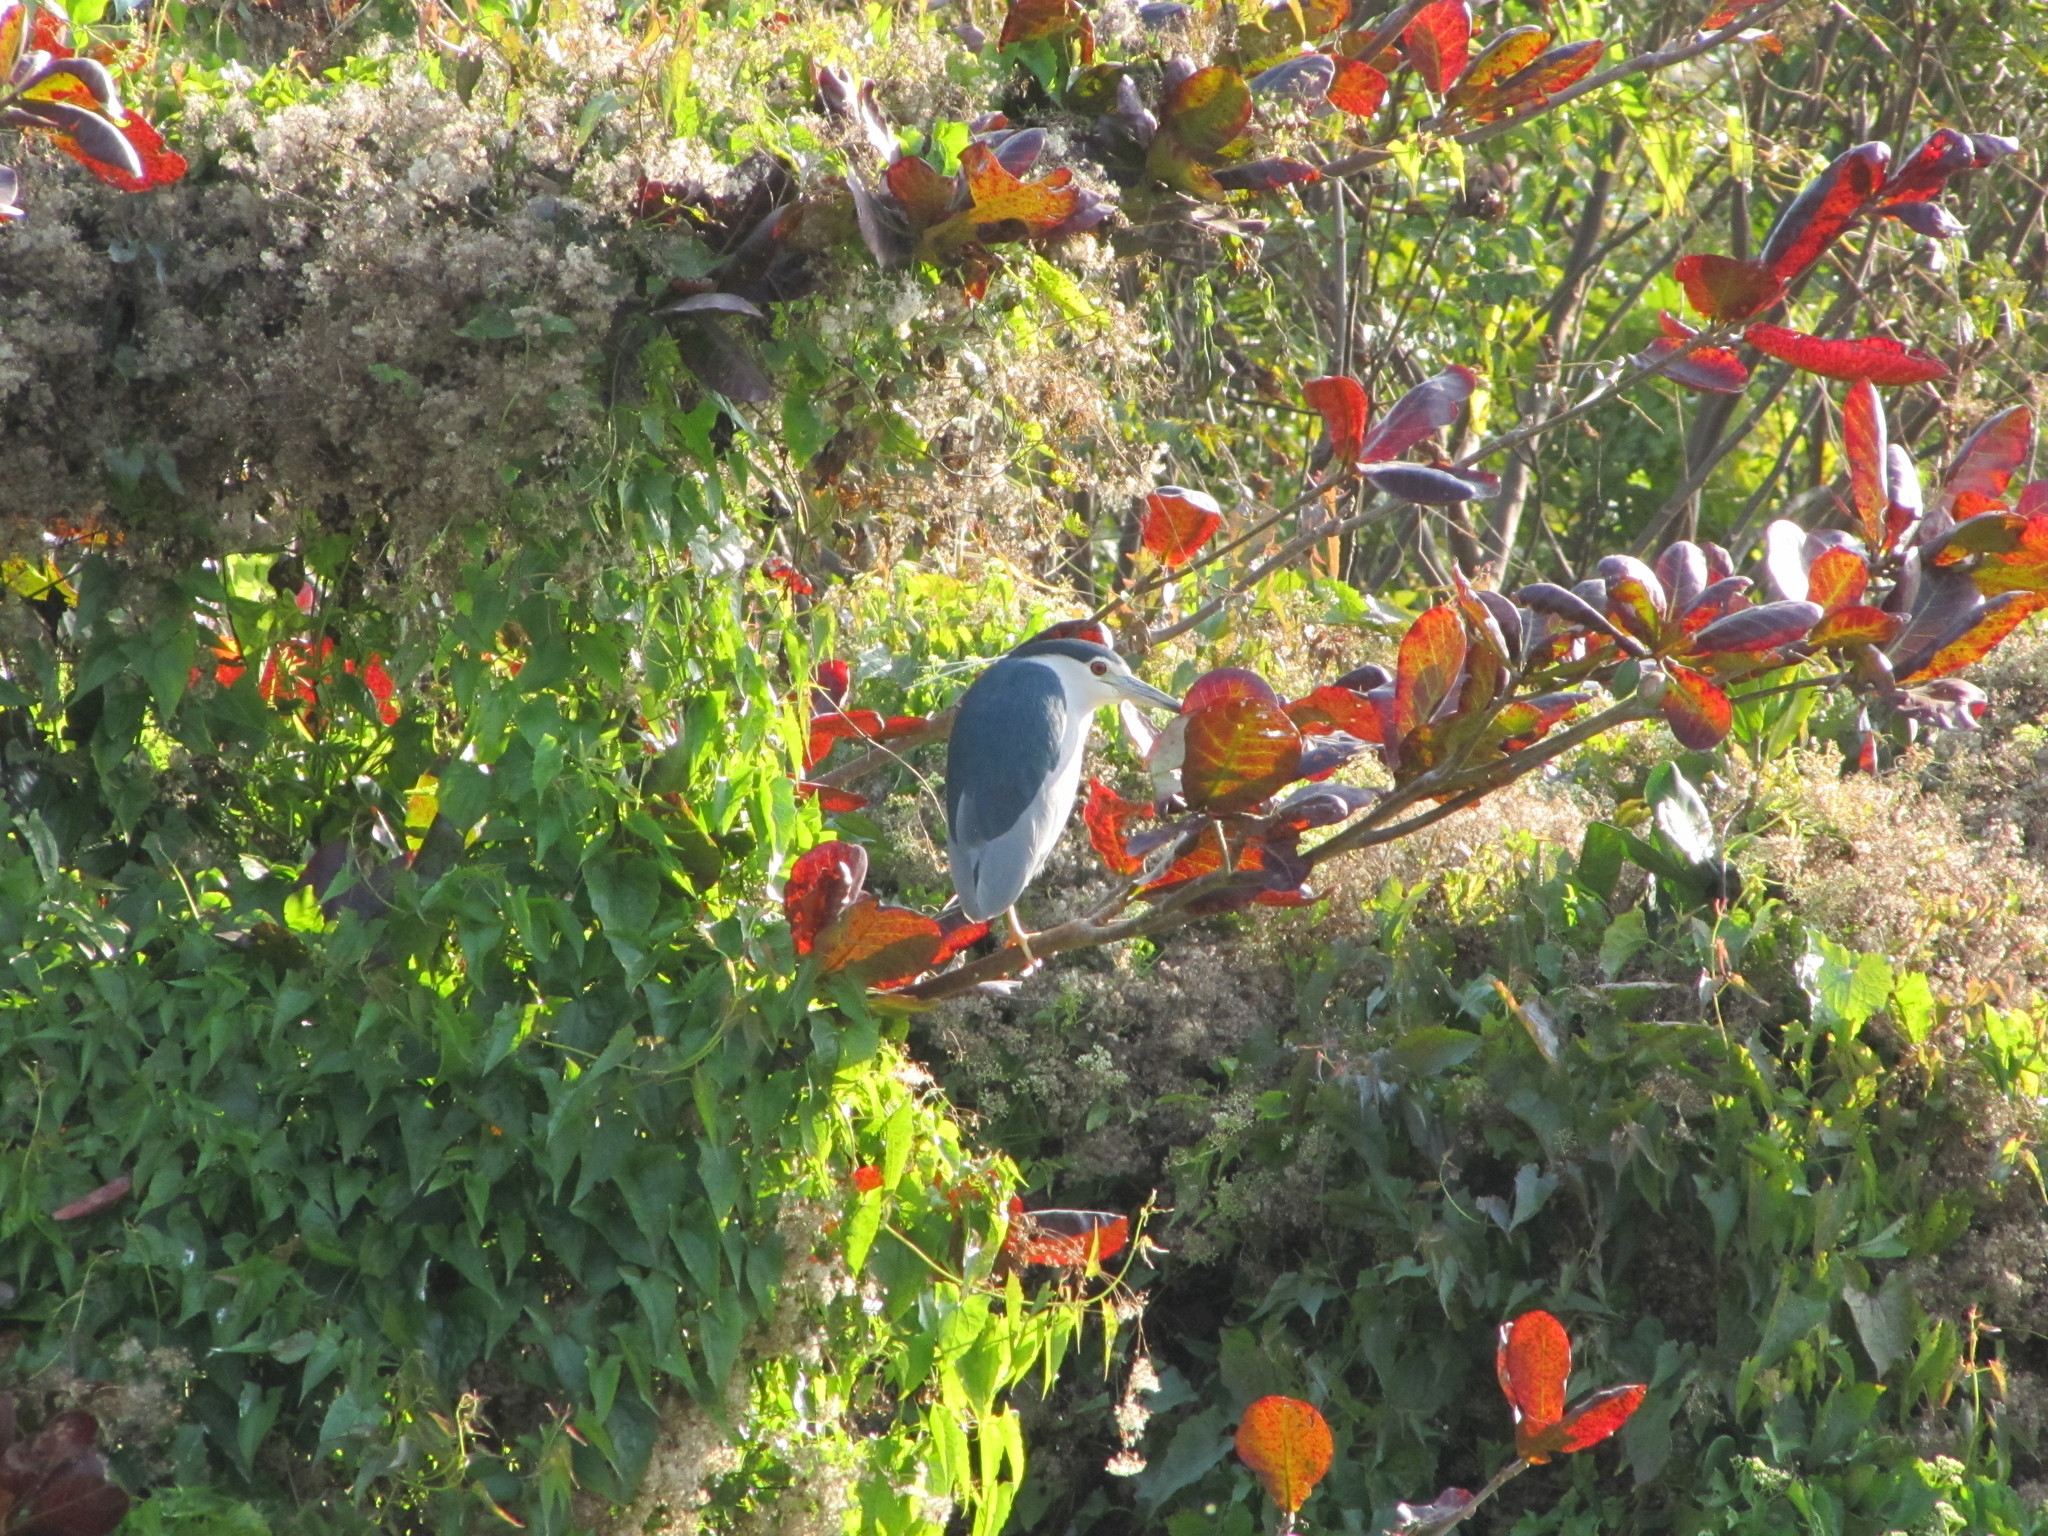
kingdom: Animalia
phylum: Chordata
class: Aves
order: Pelecaniformes
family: Ardeidae
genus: Nycticorax
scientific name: Nycticorax nycticorax
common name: Black-crowned night heron
